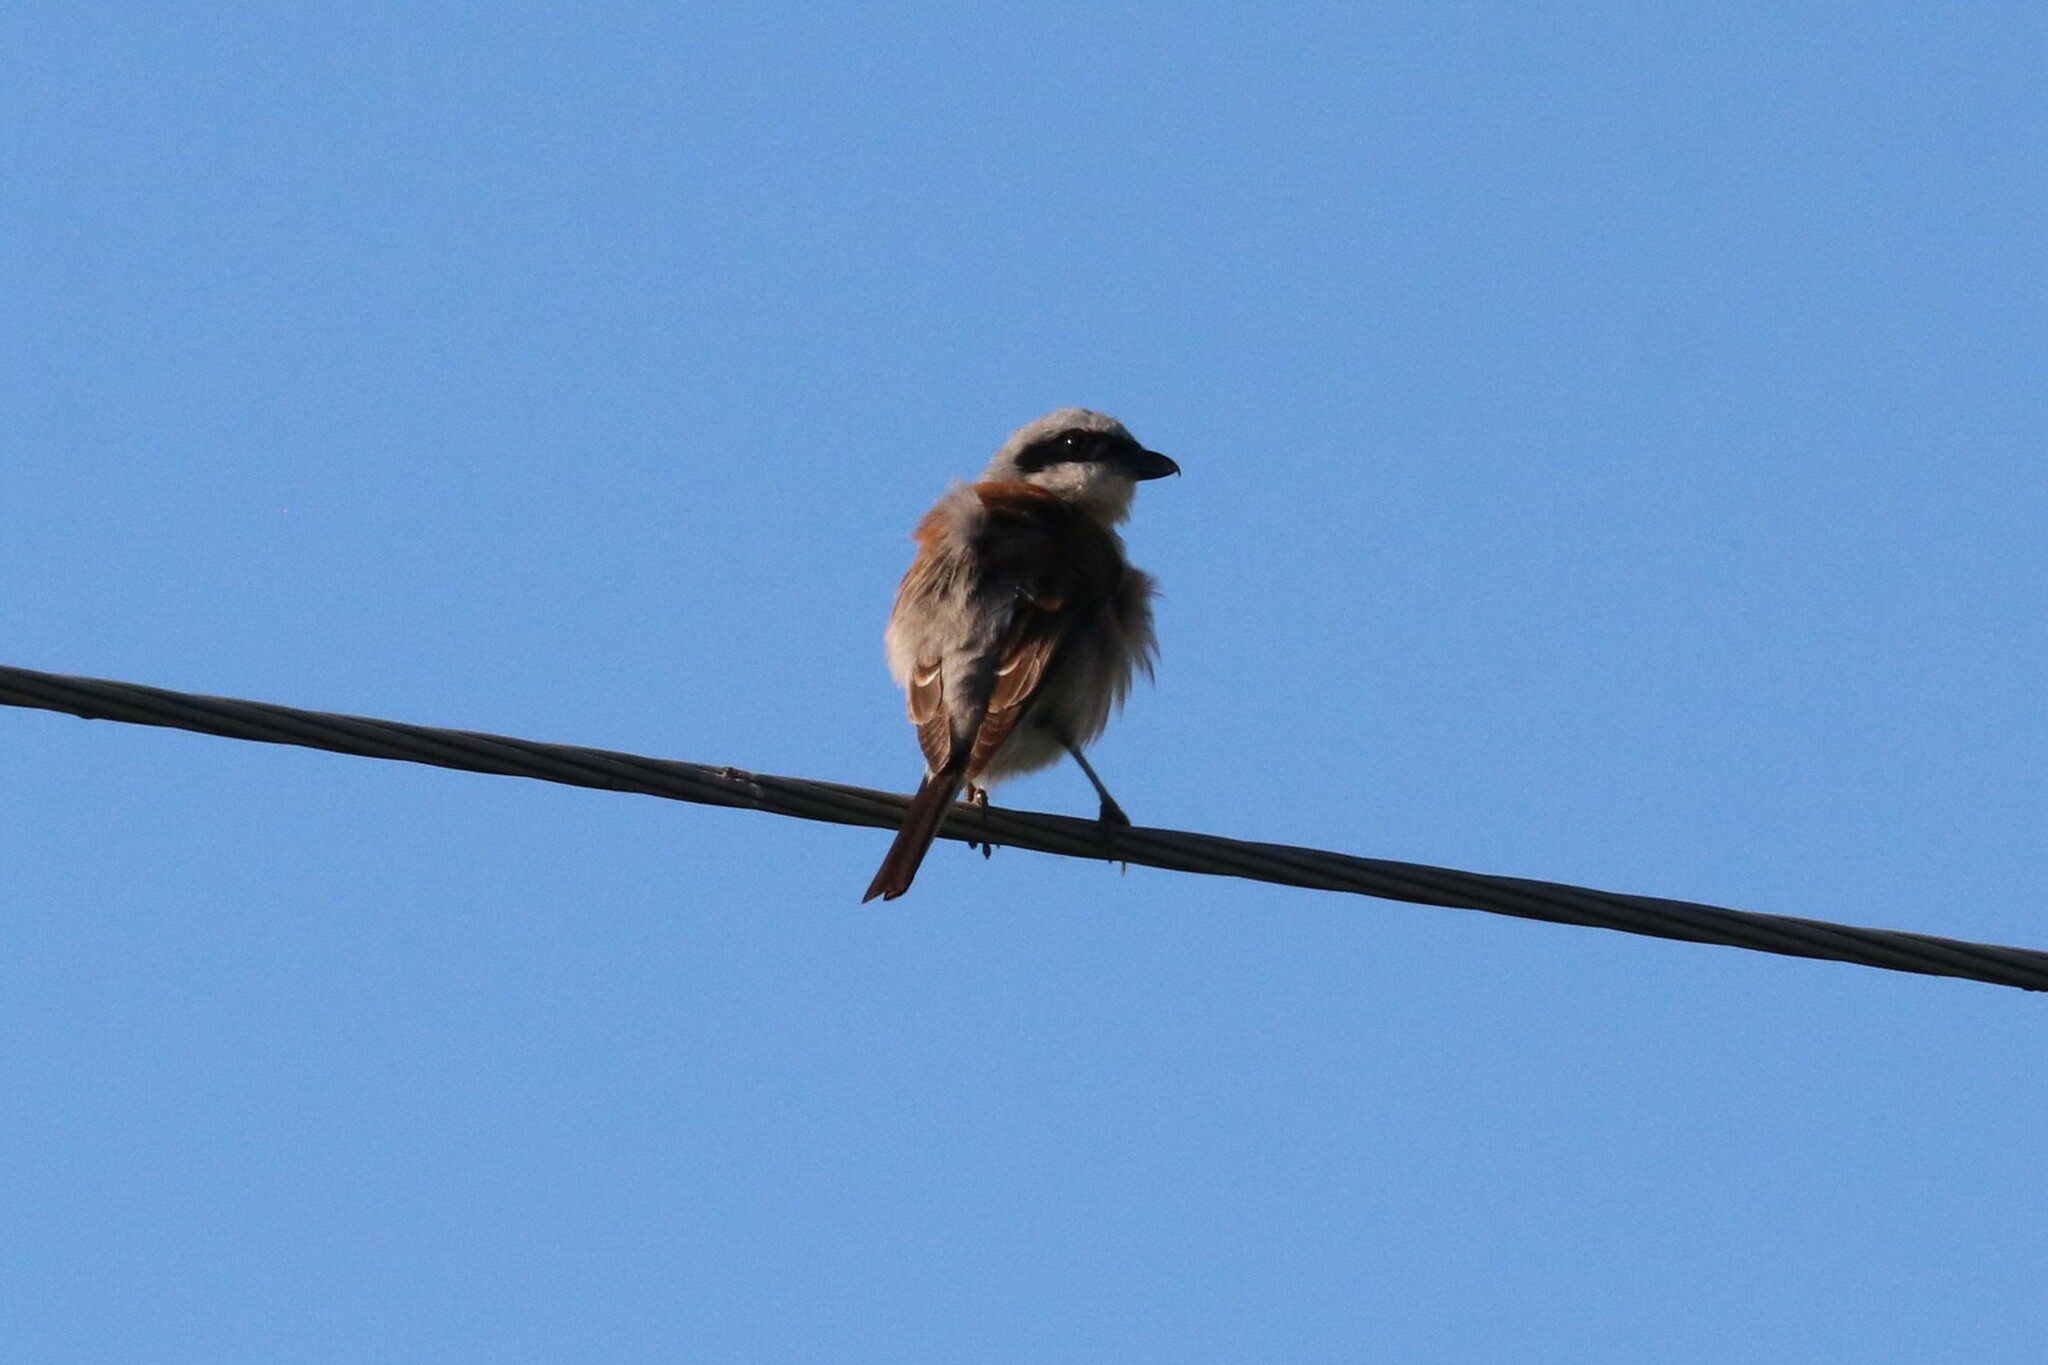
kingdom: Animalia
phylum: Chordata
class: Aves
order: Passeriformes
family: Laniidae
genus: Lanius
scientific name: Lanius collurio
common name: Red-backed shrike
